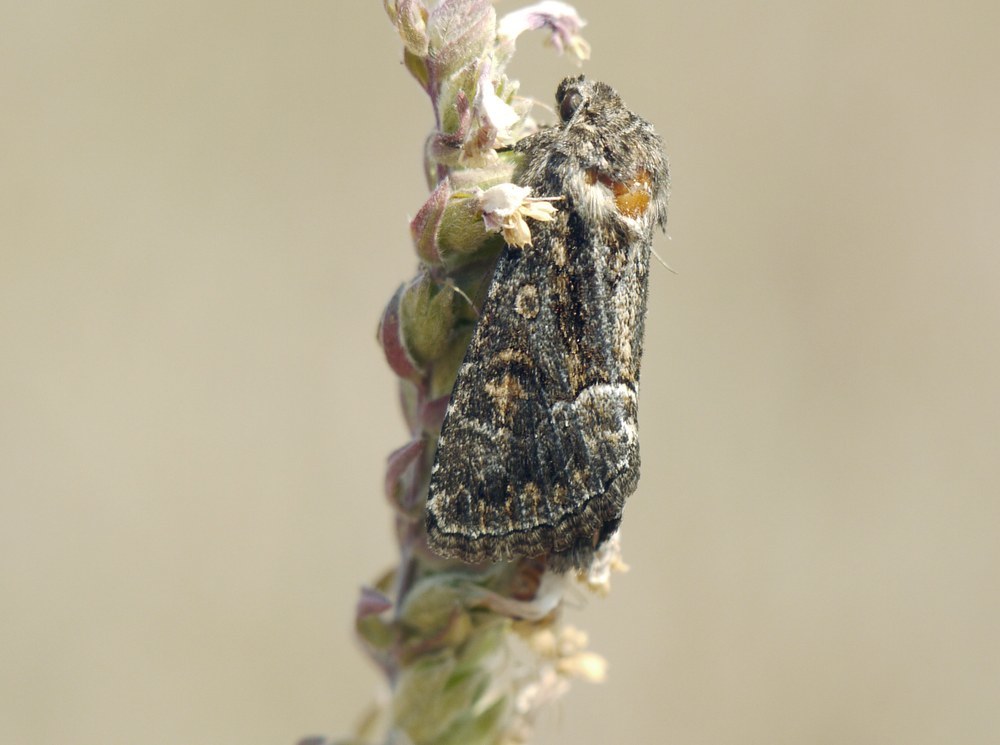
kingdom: Animalia
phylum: Arthropoda
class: Insecta
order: Lepidoptera
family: Noctuidae
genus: Thalpophila
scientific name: Thalpophila matura
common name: Straw underwing
